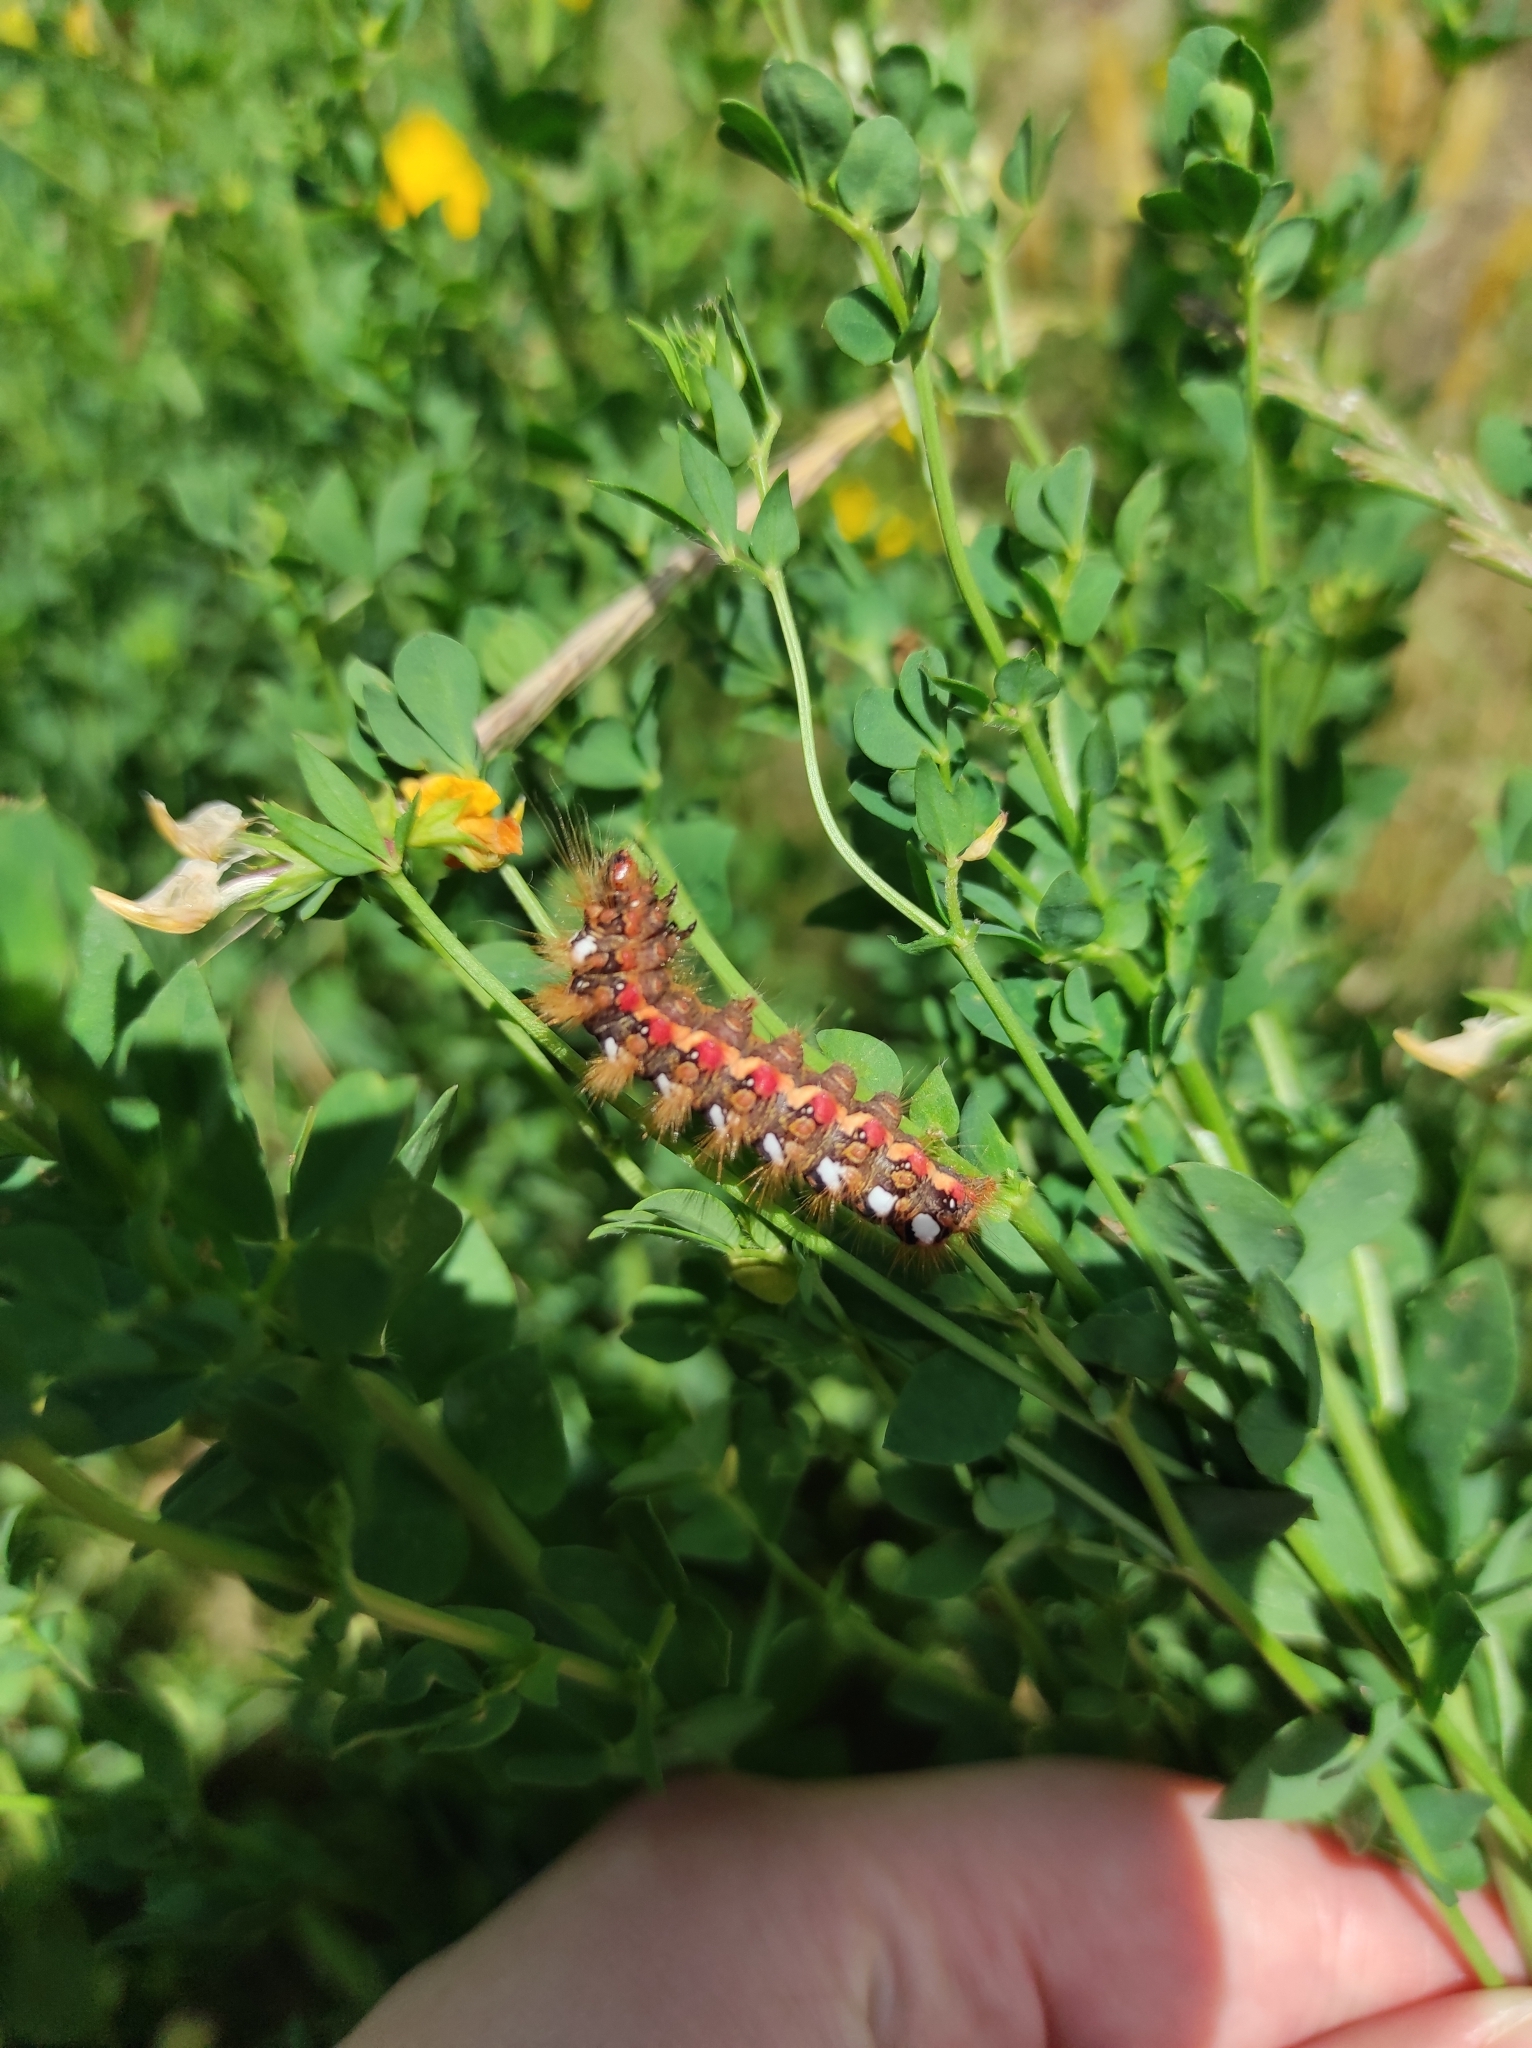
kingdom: Animalia
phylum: Arthropoda
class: Insecta
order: Lepidoptera
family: Noctuidae
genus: Acronicta
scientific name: Acronicta rumicis
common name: Knot grass
